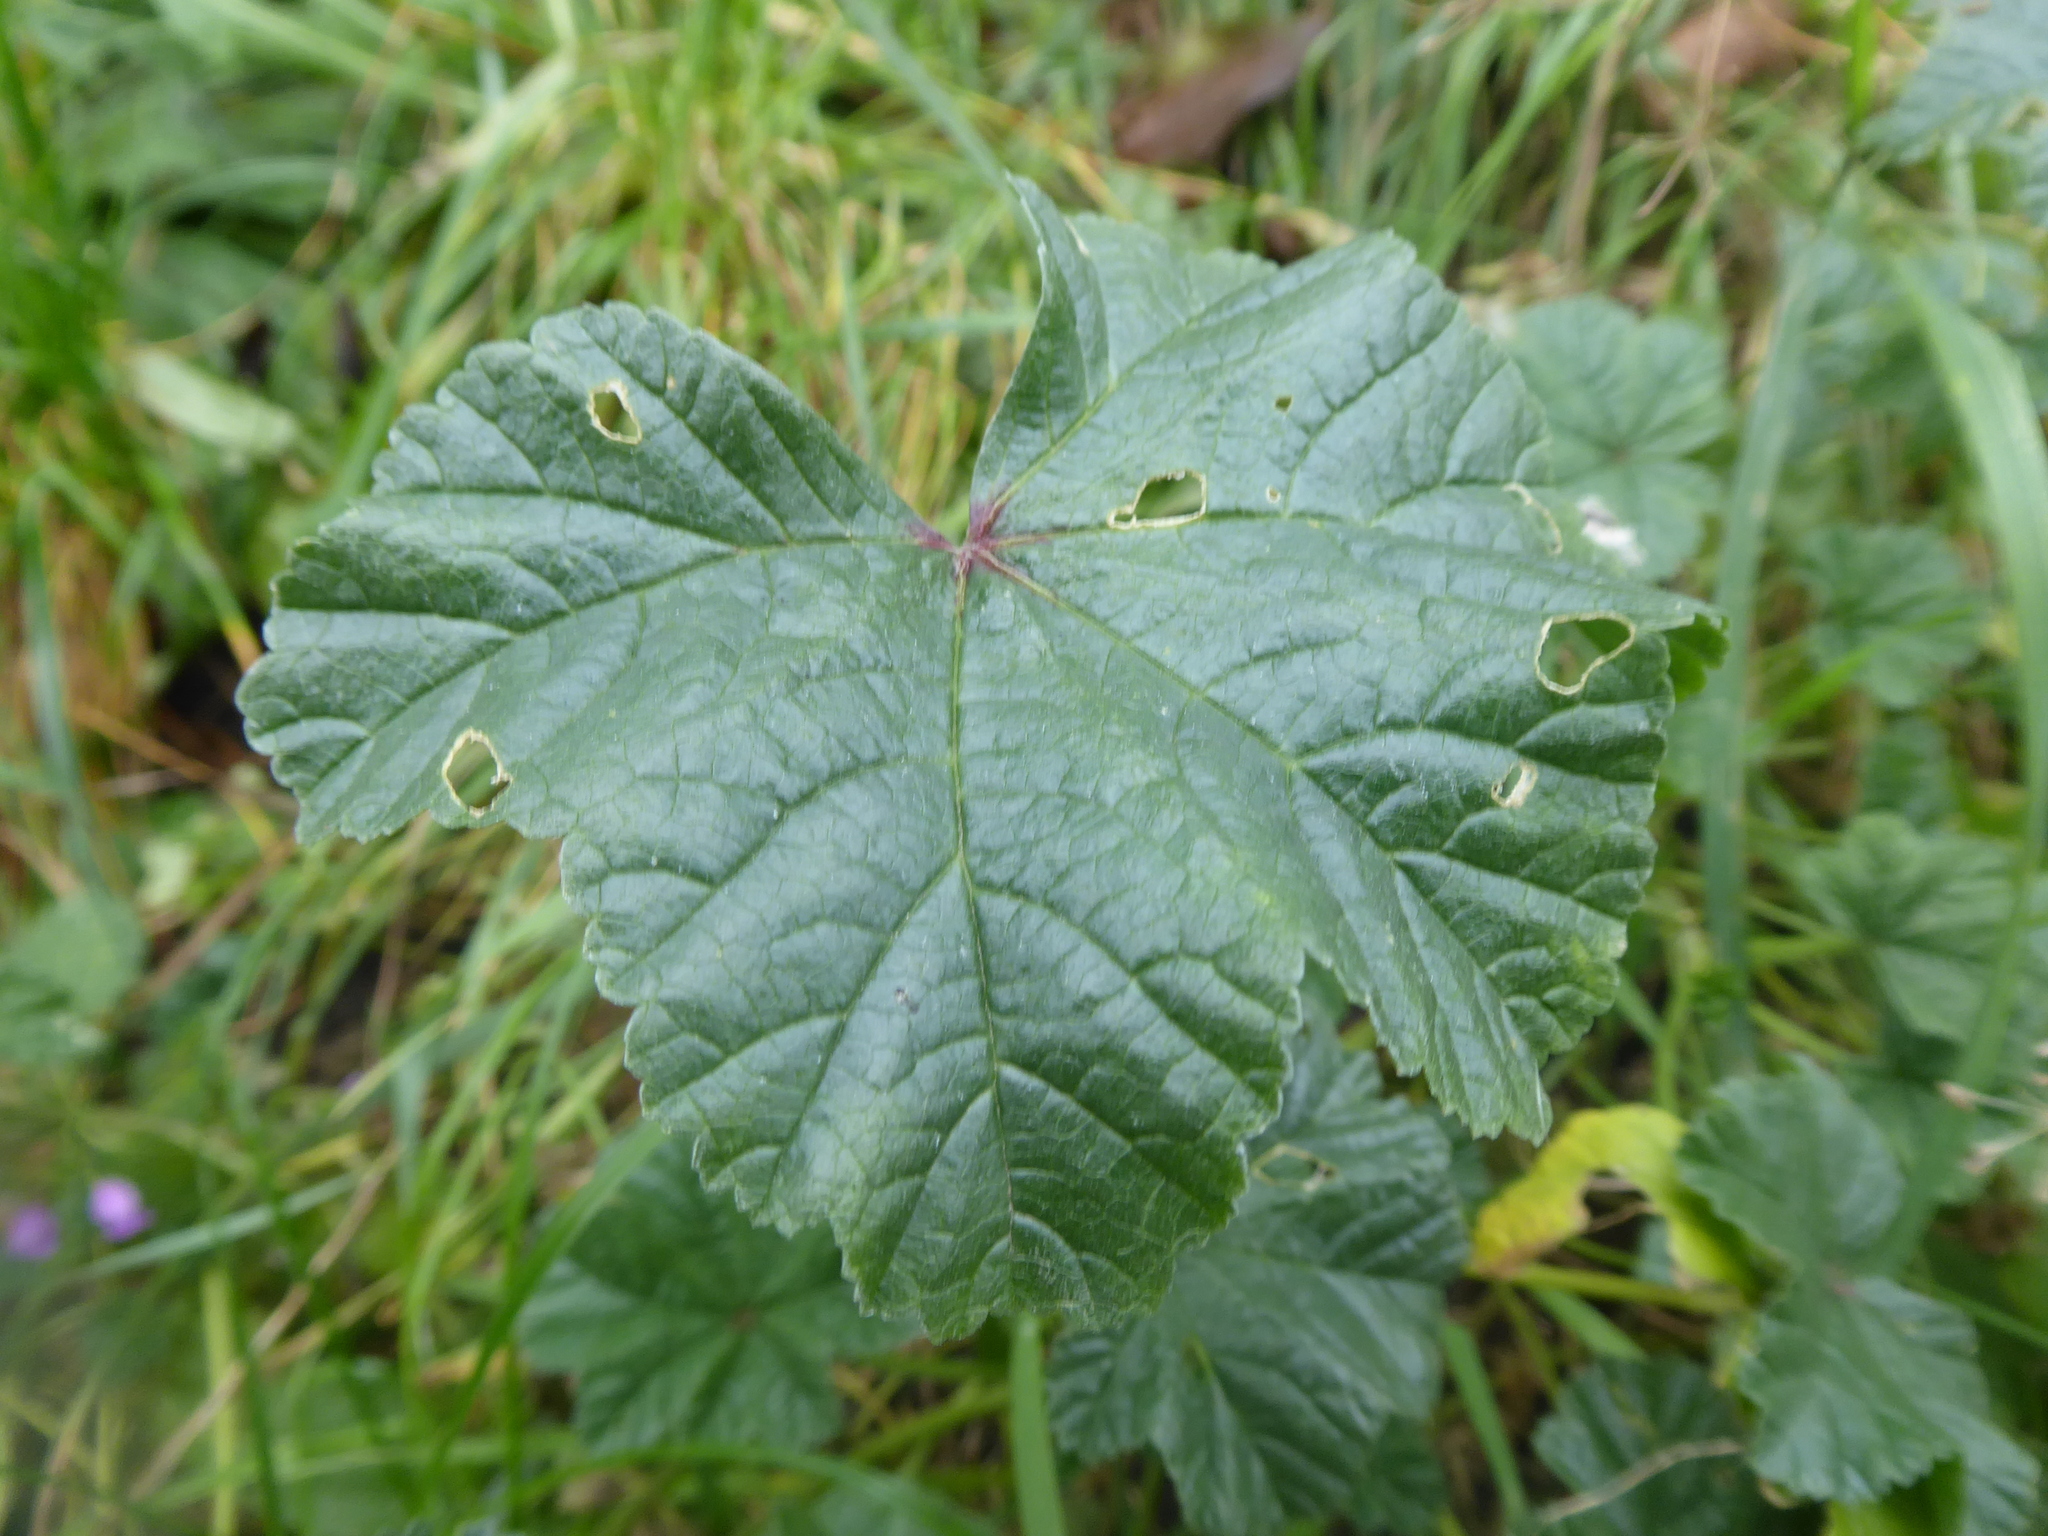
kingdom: Plantae
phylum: Tracheophyta
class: Magnoliopsida
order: Malvales
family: Malvaceae
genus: Malva
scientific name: Malva sylvestris
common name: Common mallow
